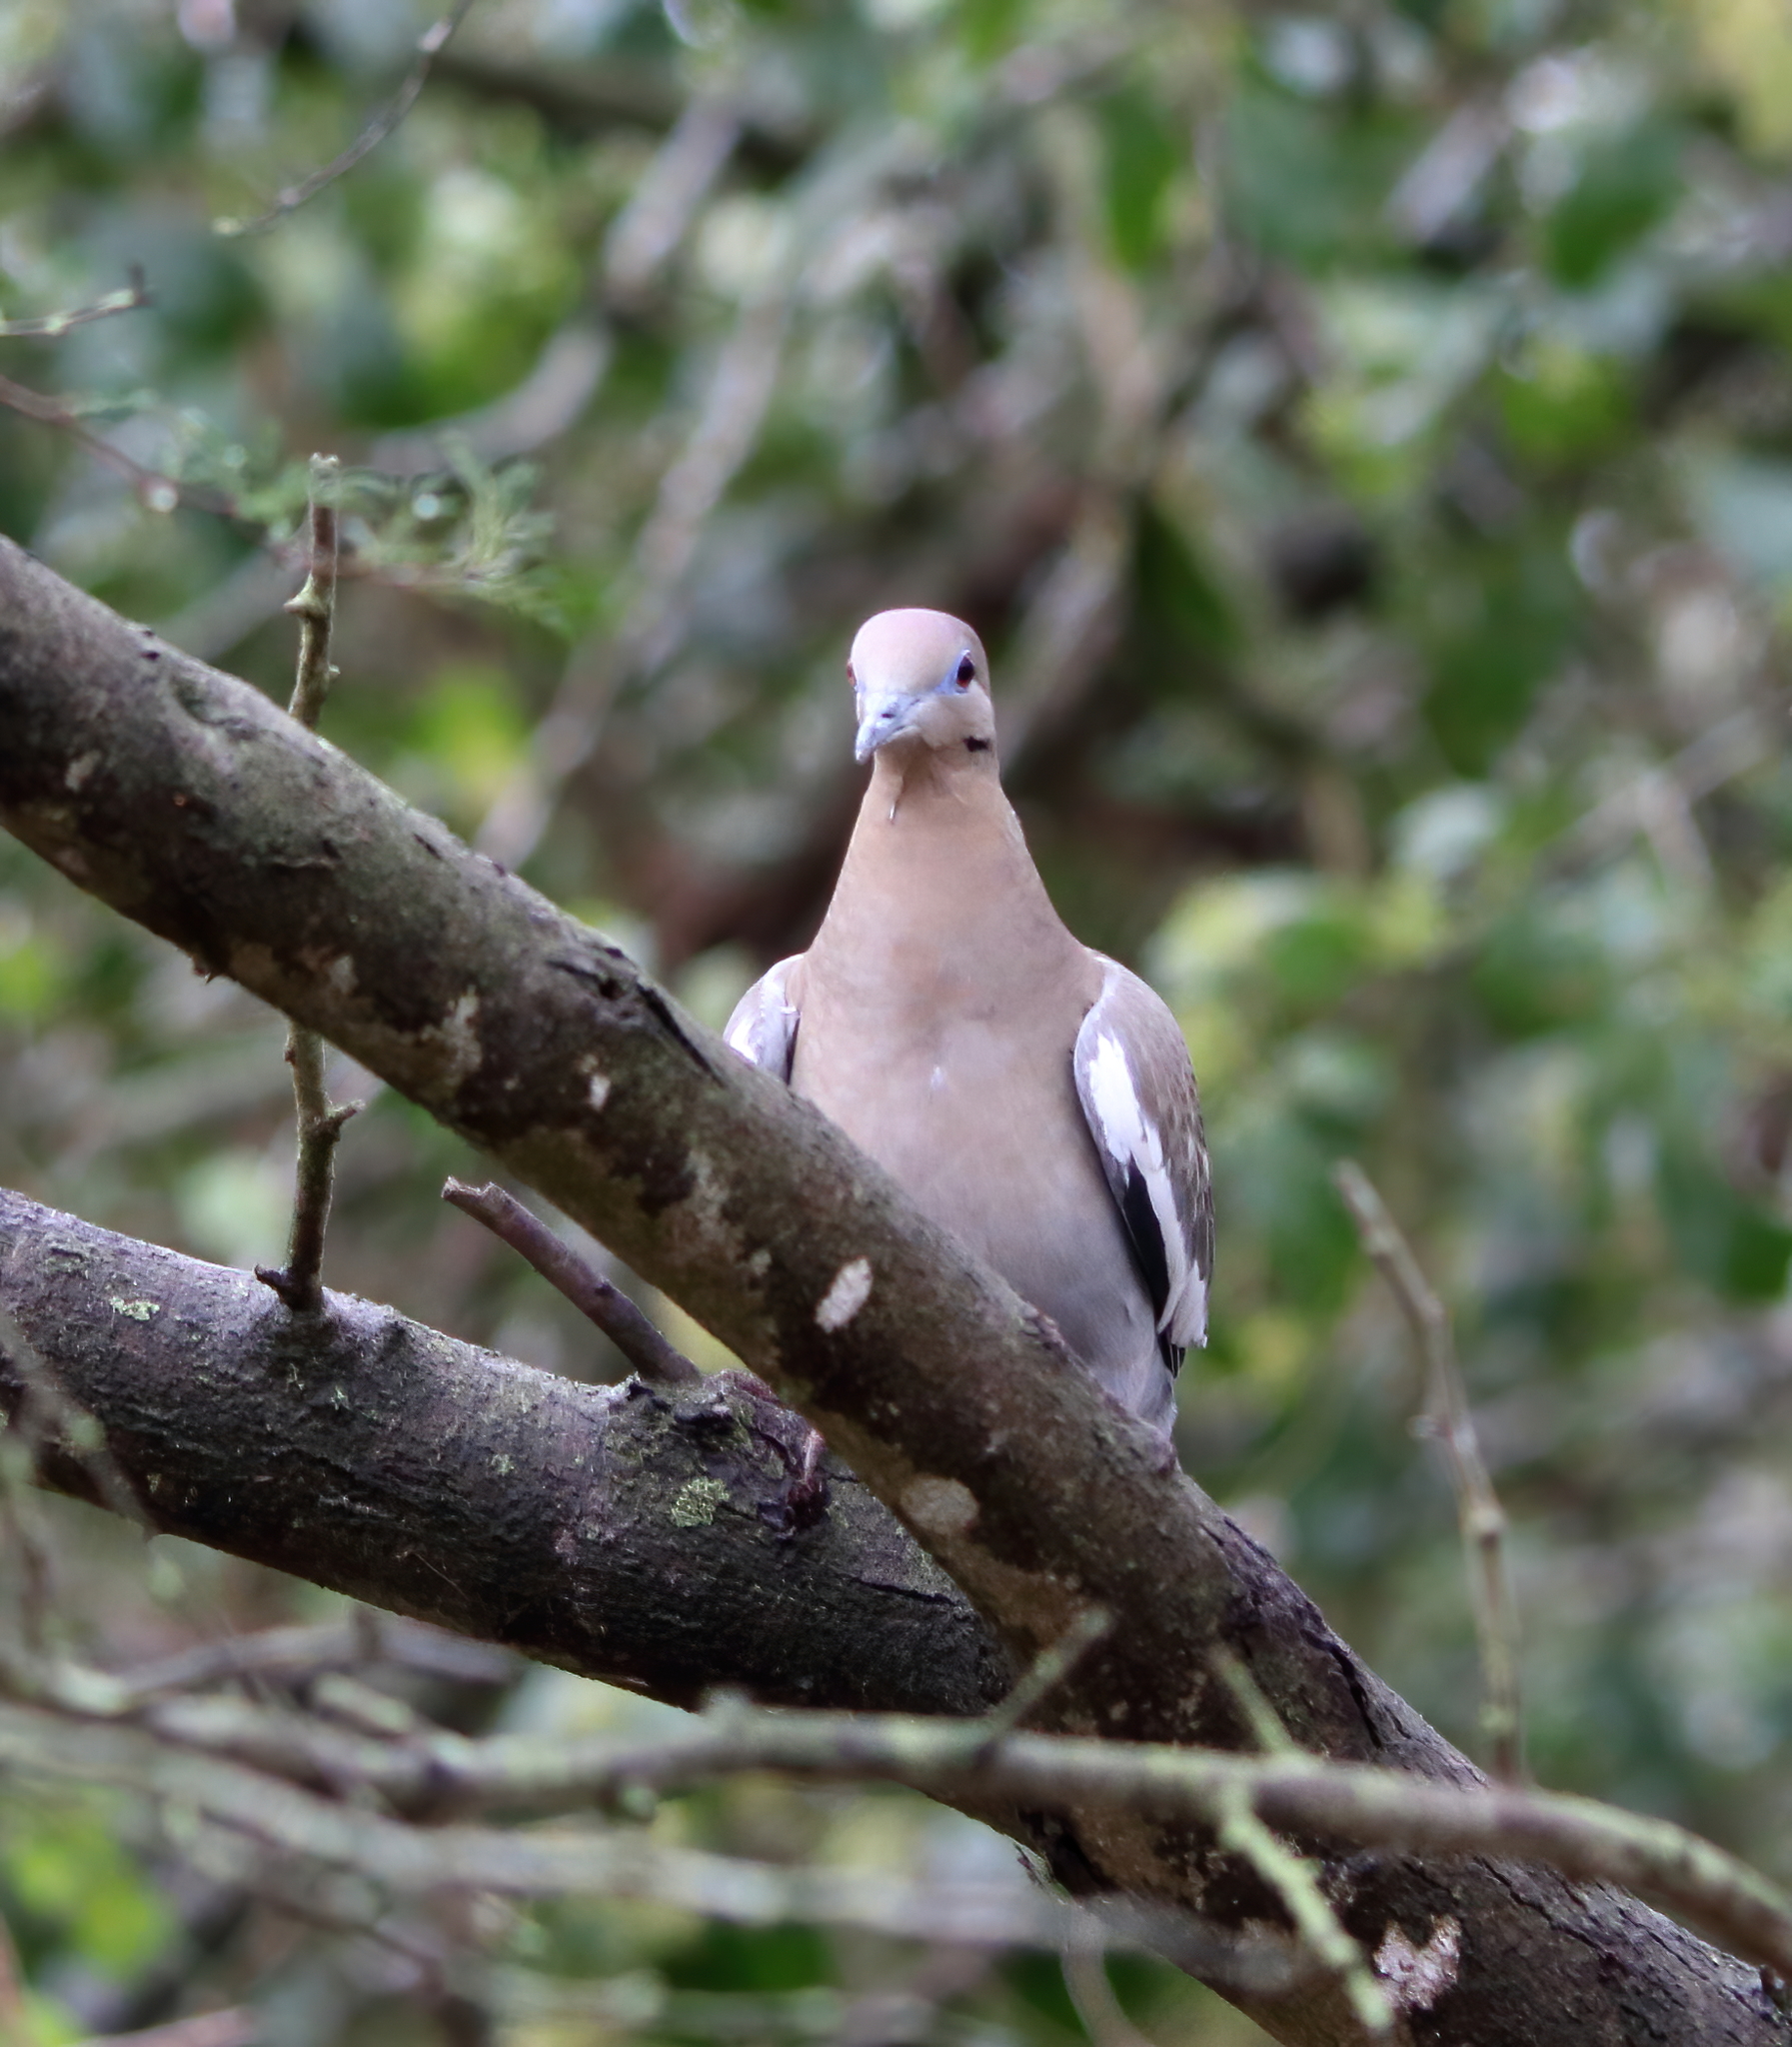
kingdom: Animalia
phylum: Chordata
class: Aves
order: Columbiformes
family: Columbidae
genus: Zenaida
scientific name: Zenaida asiatica
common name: White-winged dove
